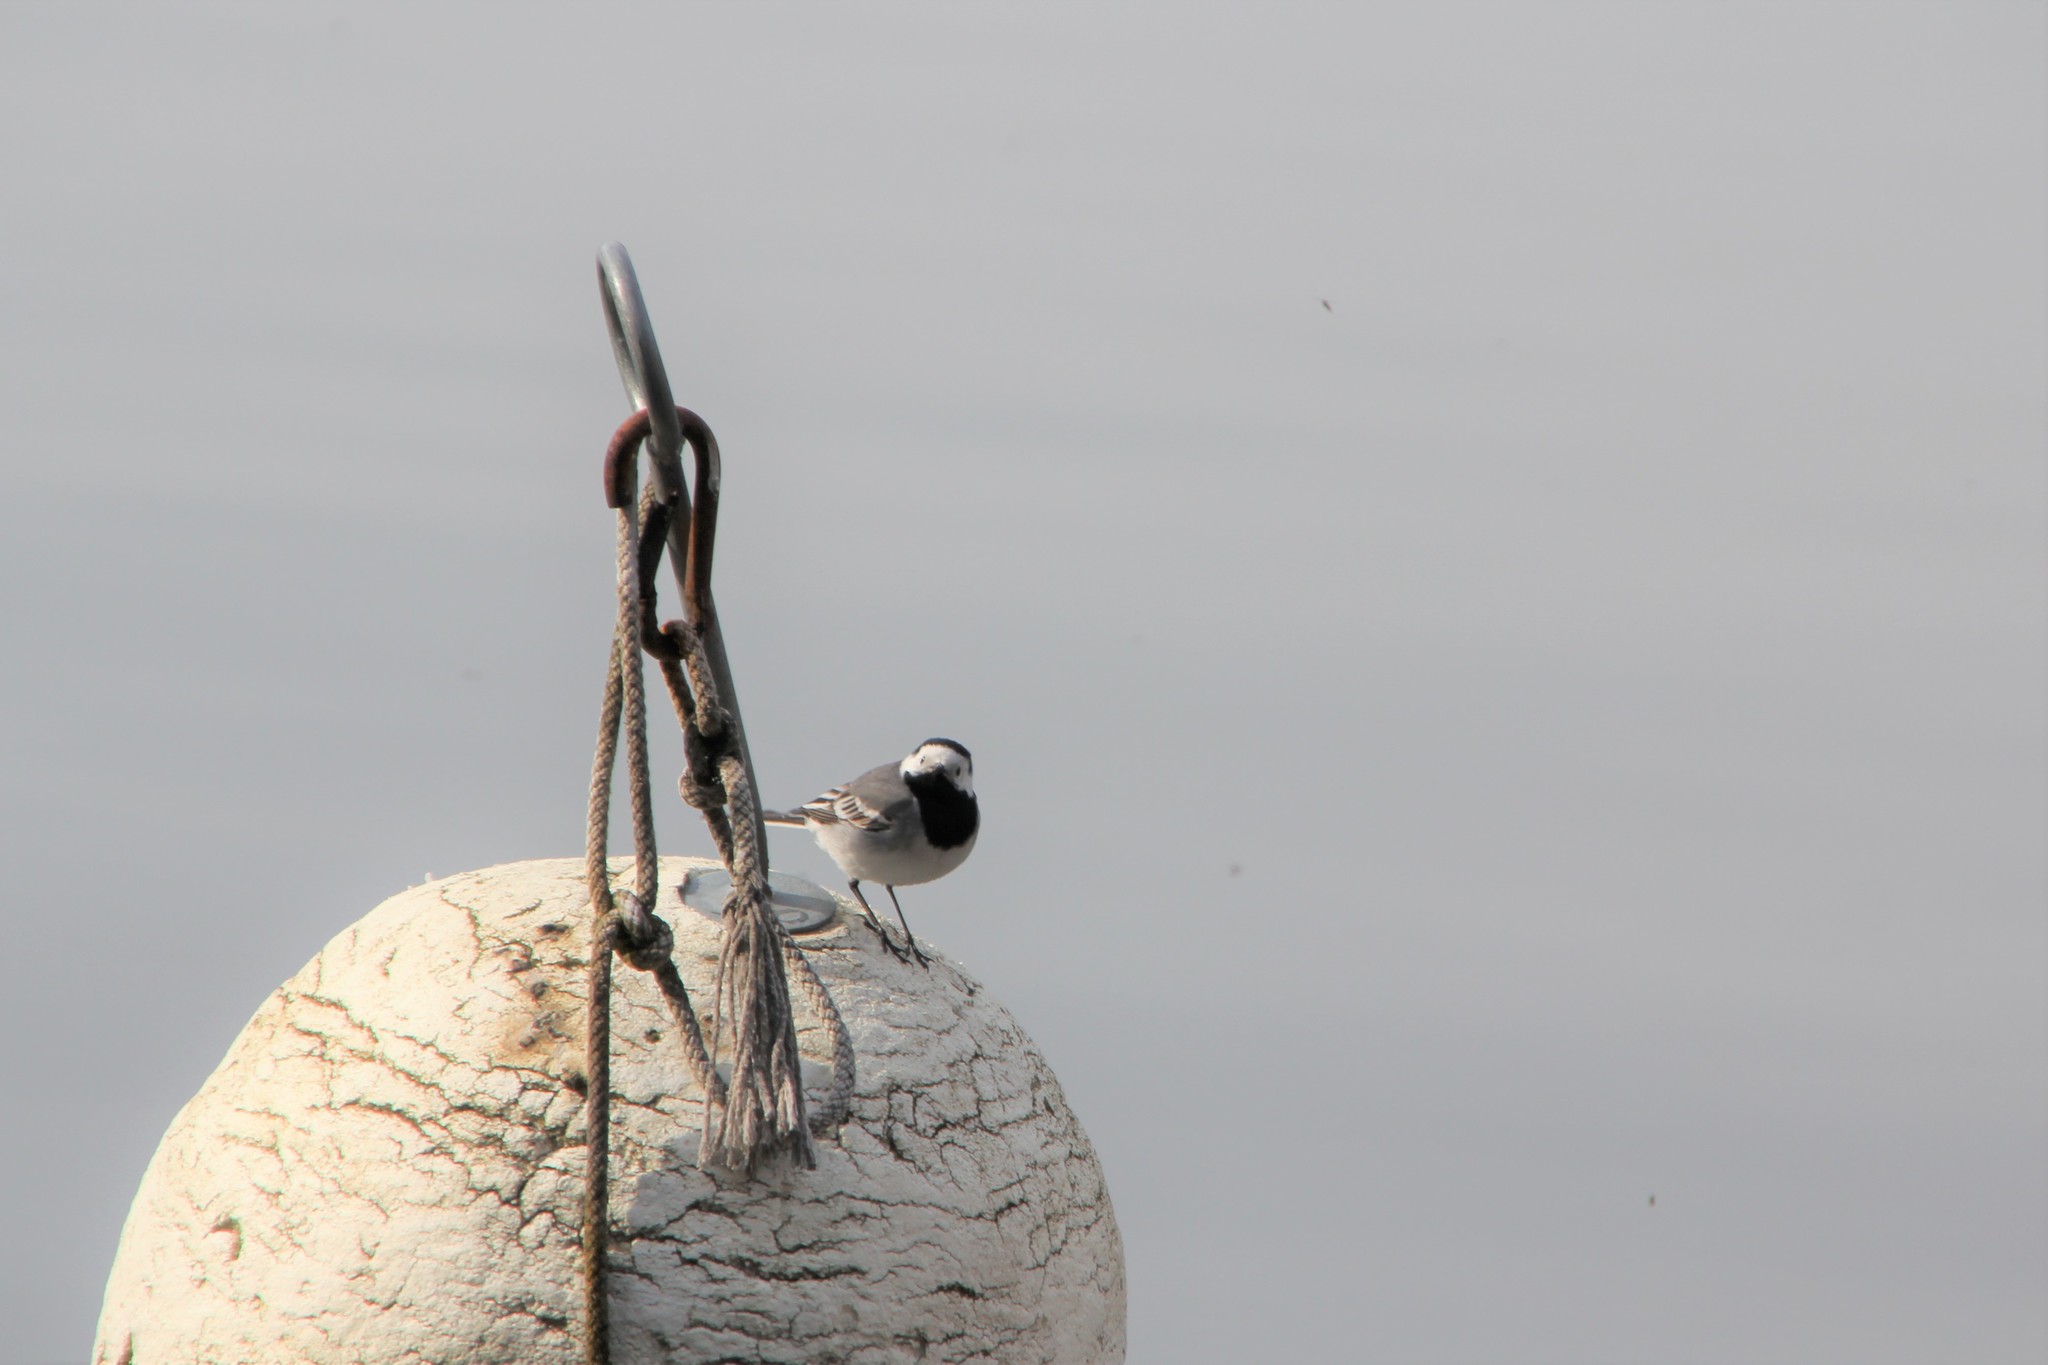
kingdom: Animalia
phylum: Chordata
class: Aves
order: Passeriformes
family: Motacillidae
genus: Motacilla
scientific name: Motacilla alba
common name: White wagtail
